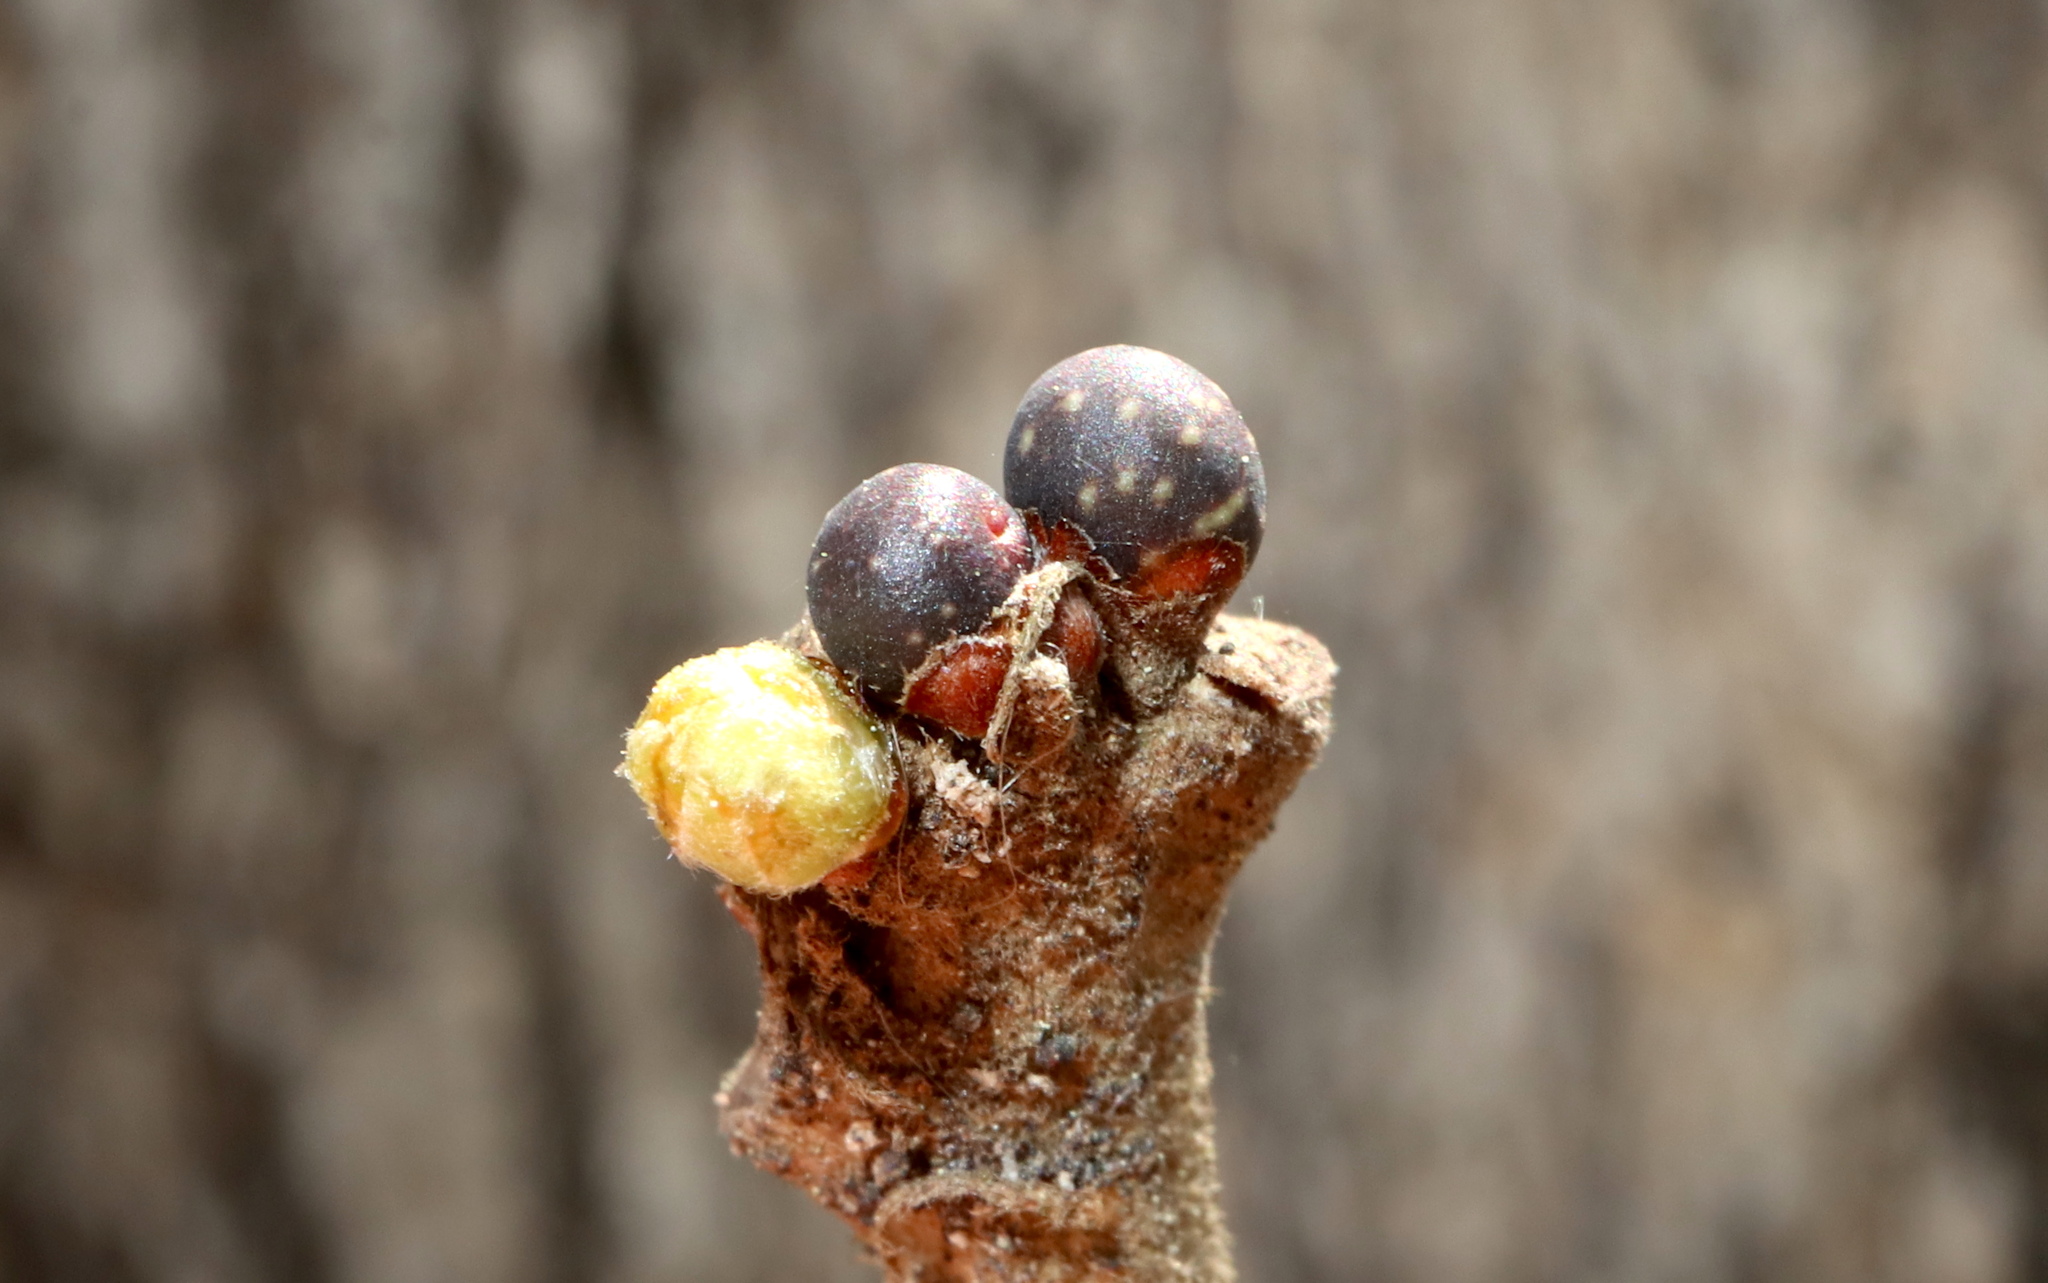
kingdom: Animalia
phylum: Arthropoda
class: Insecta
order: Hymenoptera
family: Cynipidae
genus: Neuroterus
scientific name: Neuroterus
